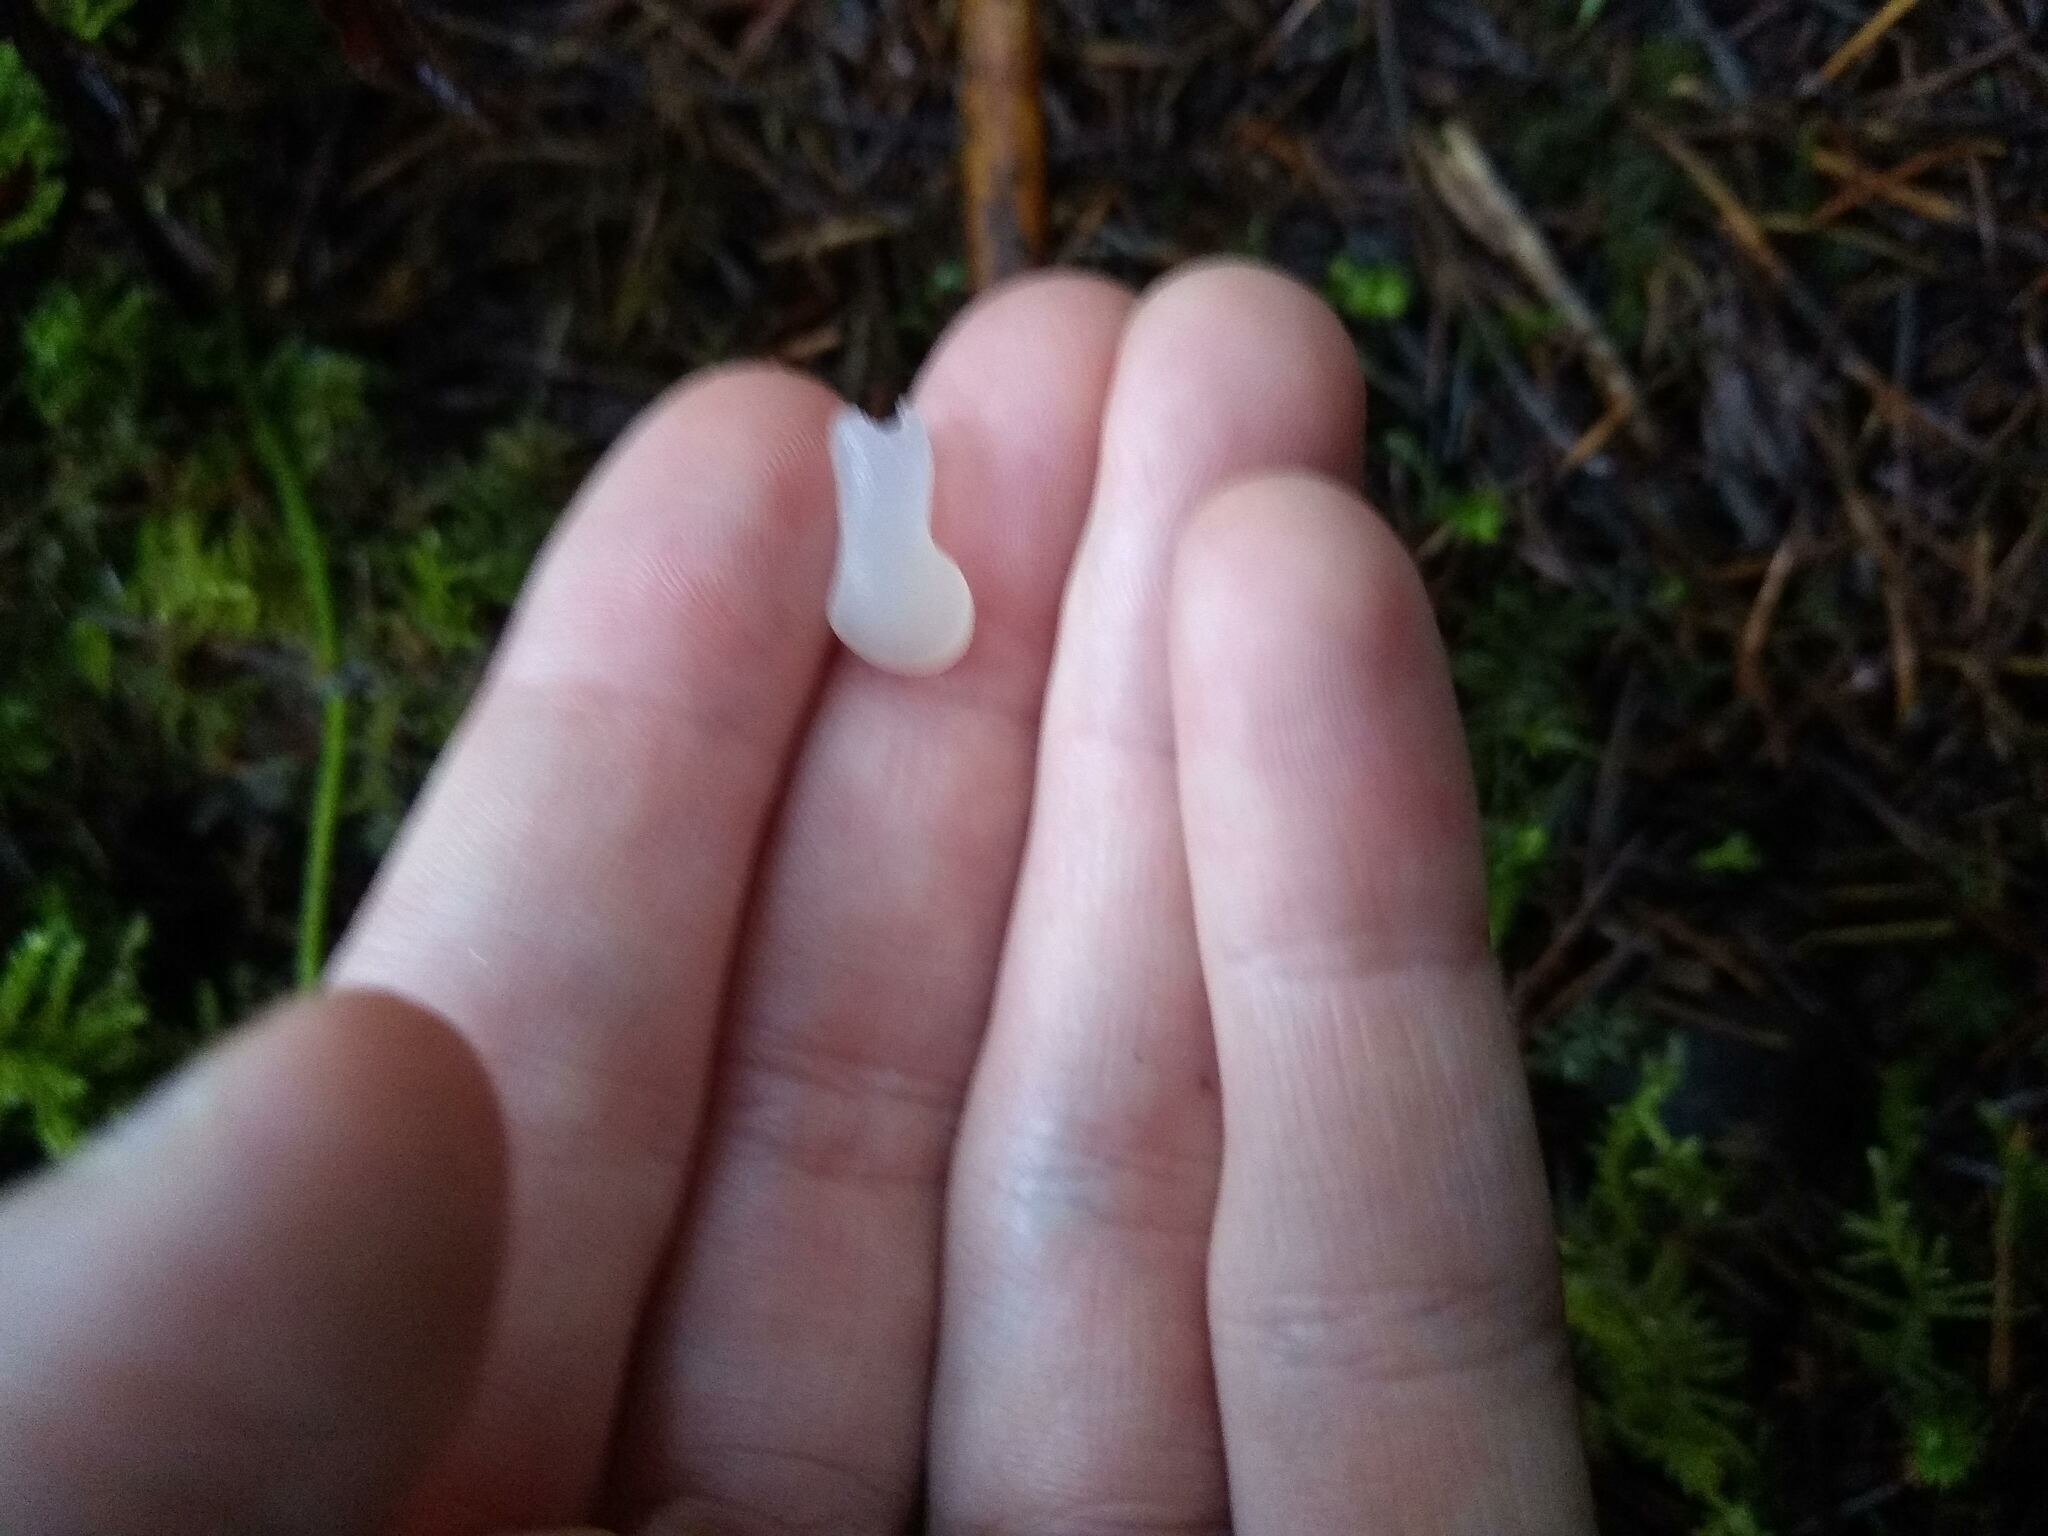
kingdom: Fungi
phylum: Basidiomycota
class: Agaricomycetes
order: Auriculariales
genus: Pseudohydnum
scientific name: Pseudohydnum gelatinosum
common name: Jelly tongue
